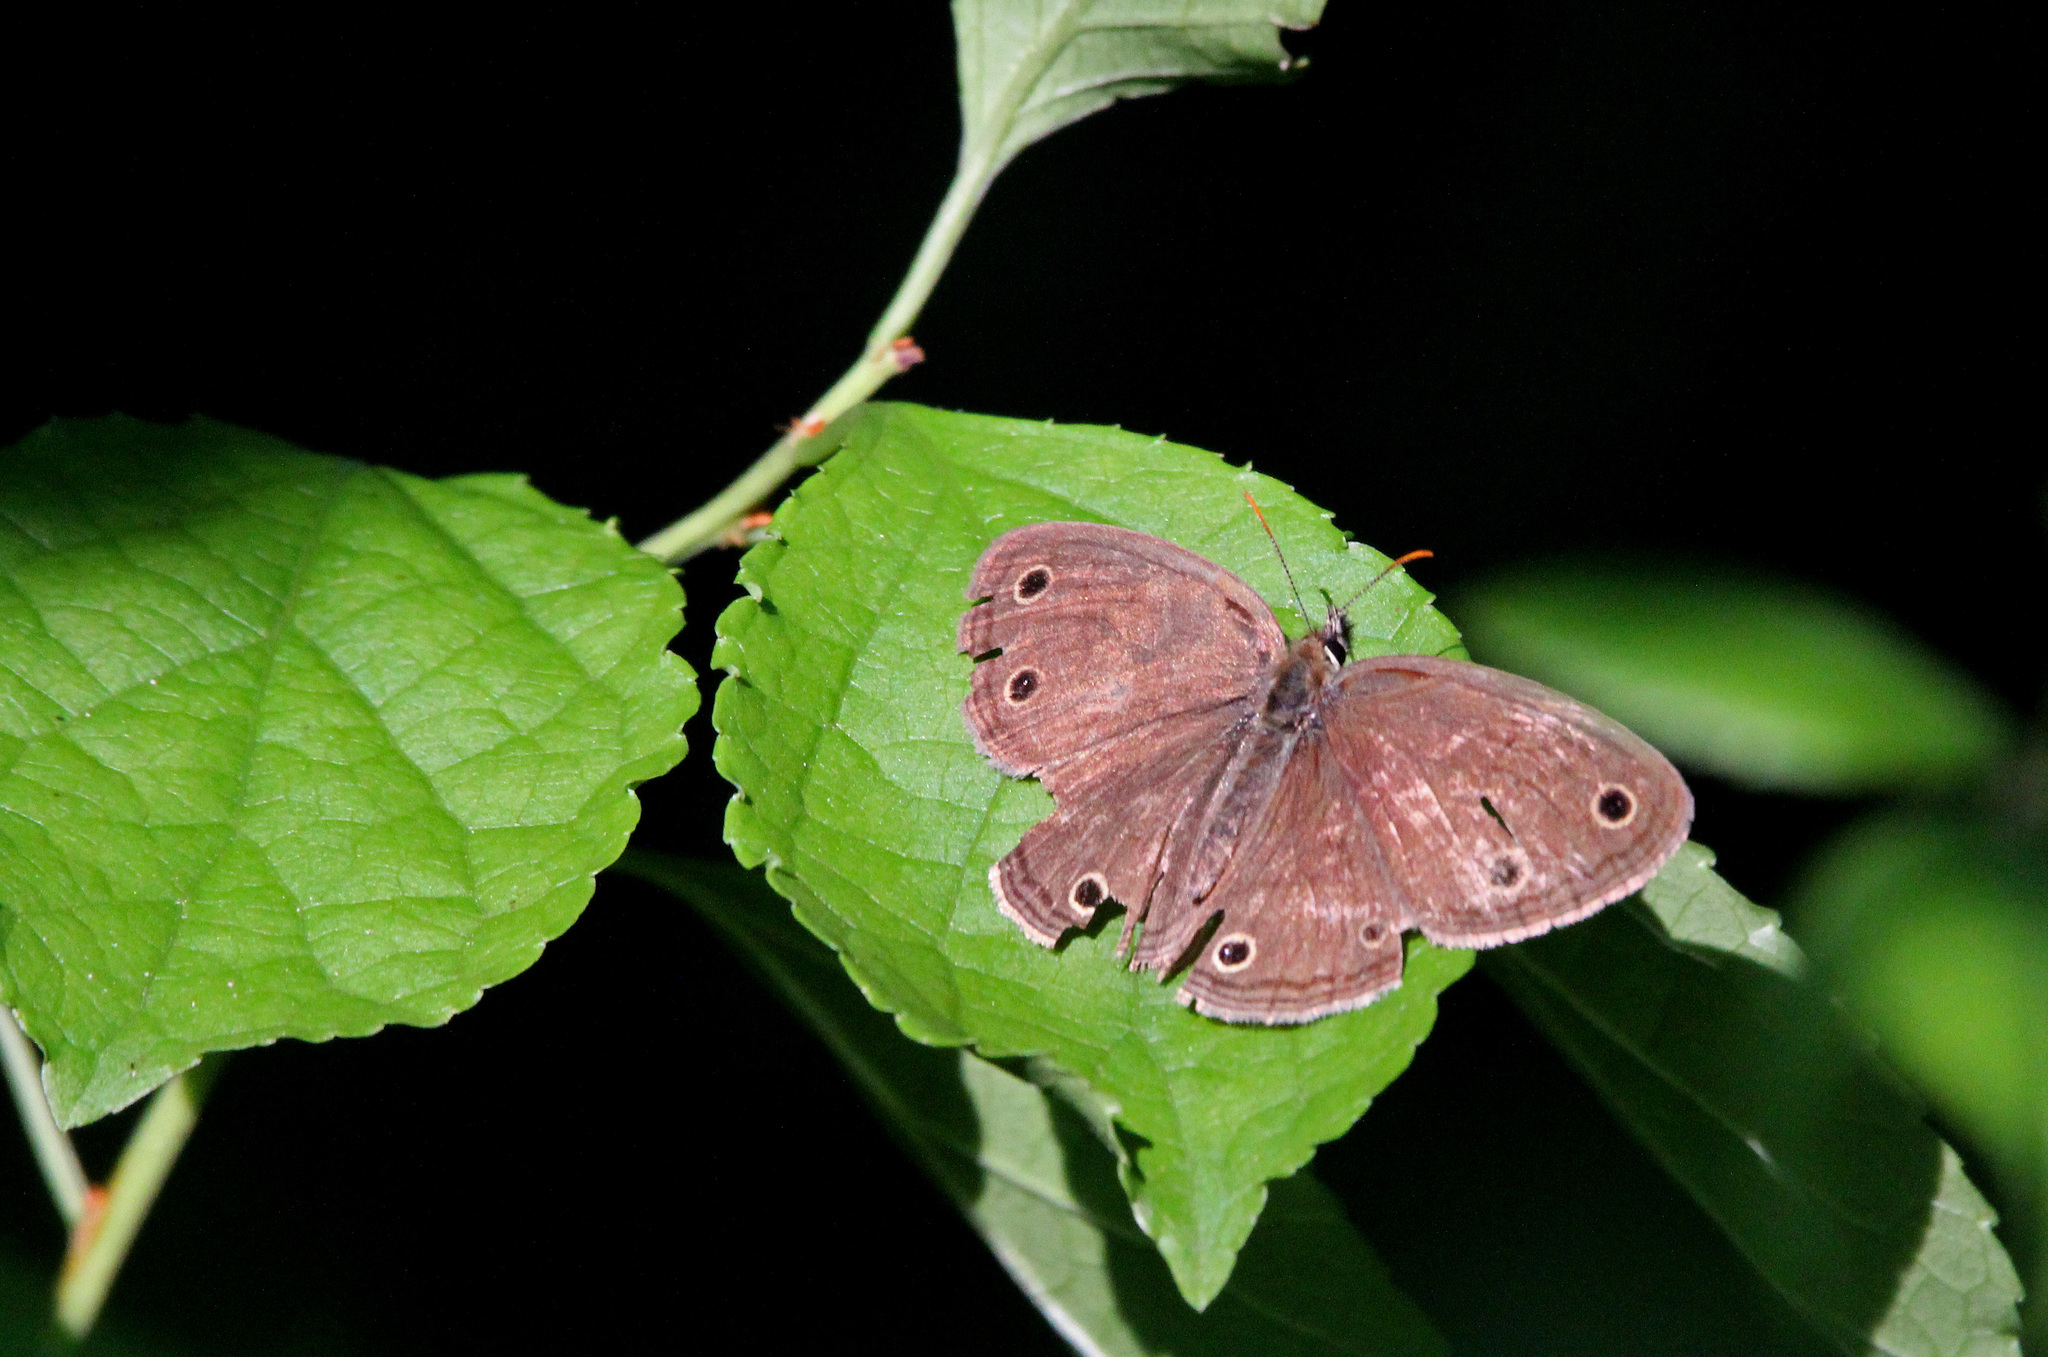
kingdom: Animalia
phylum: Arthropoda
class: Insecta
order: Lepidoptera
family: Nymphalidae
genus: Euptychia
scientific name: Euptychia cymela
